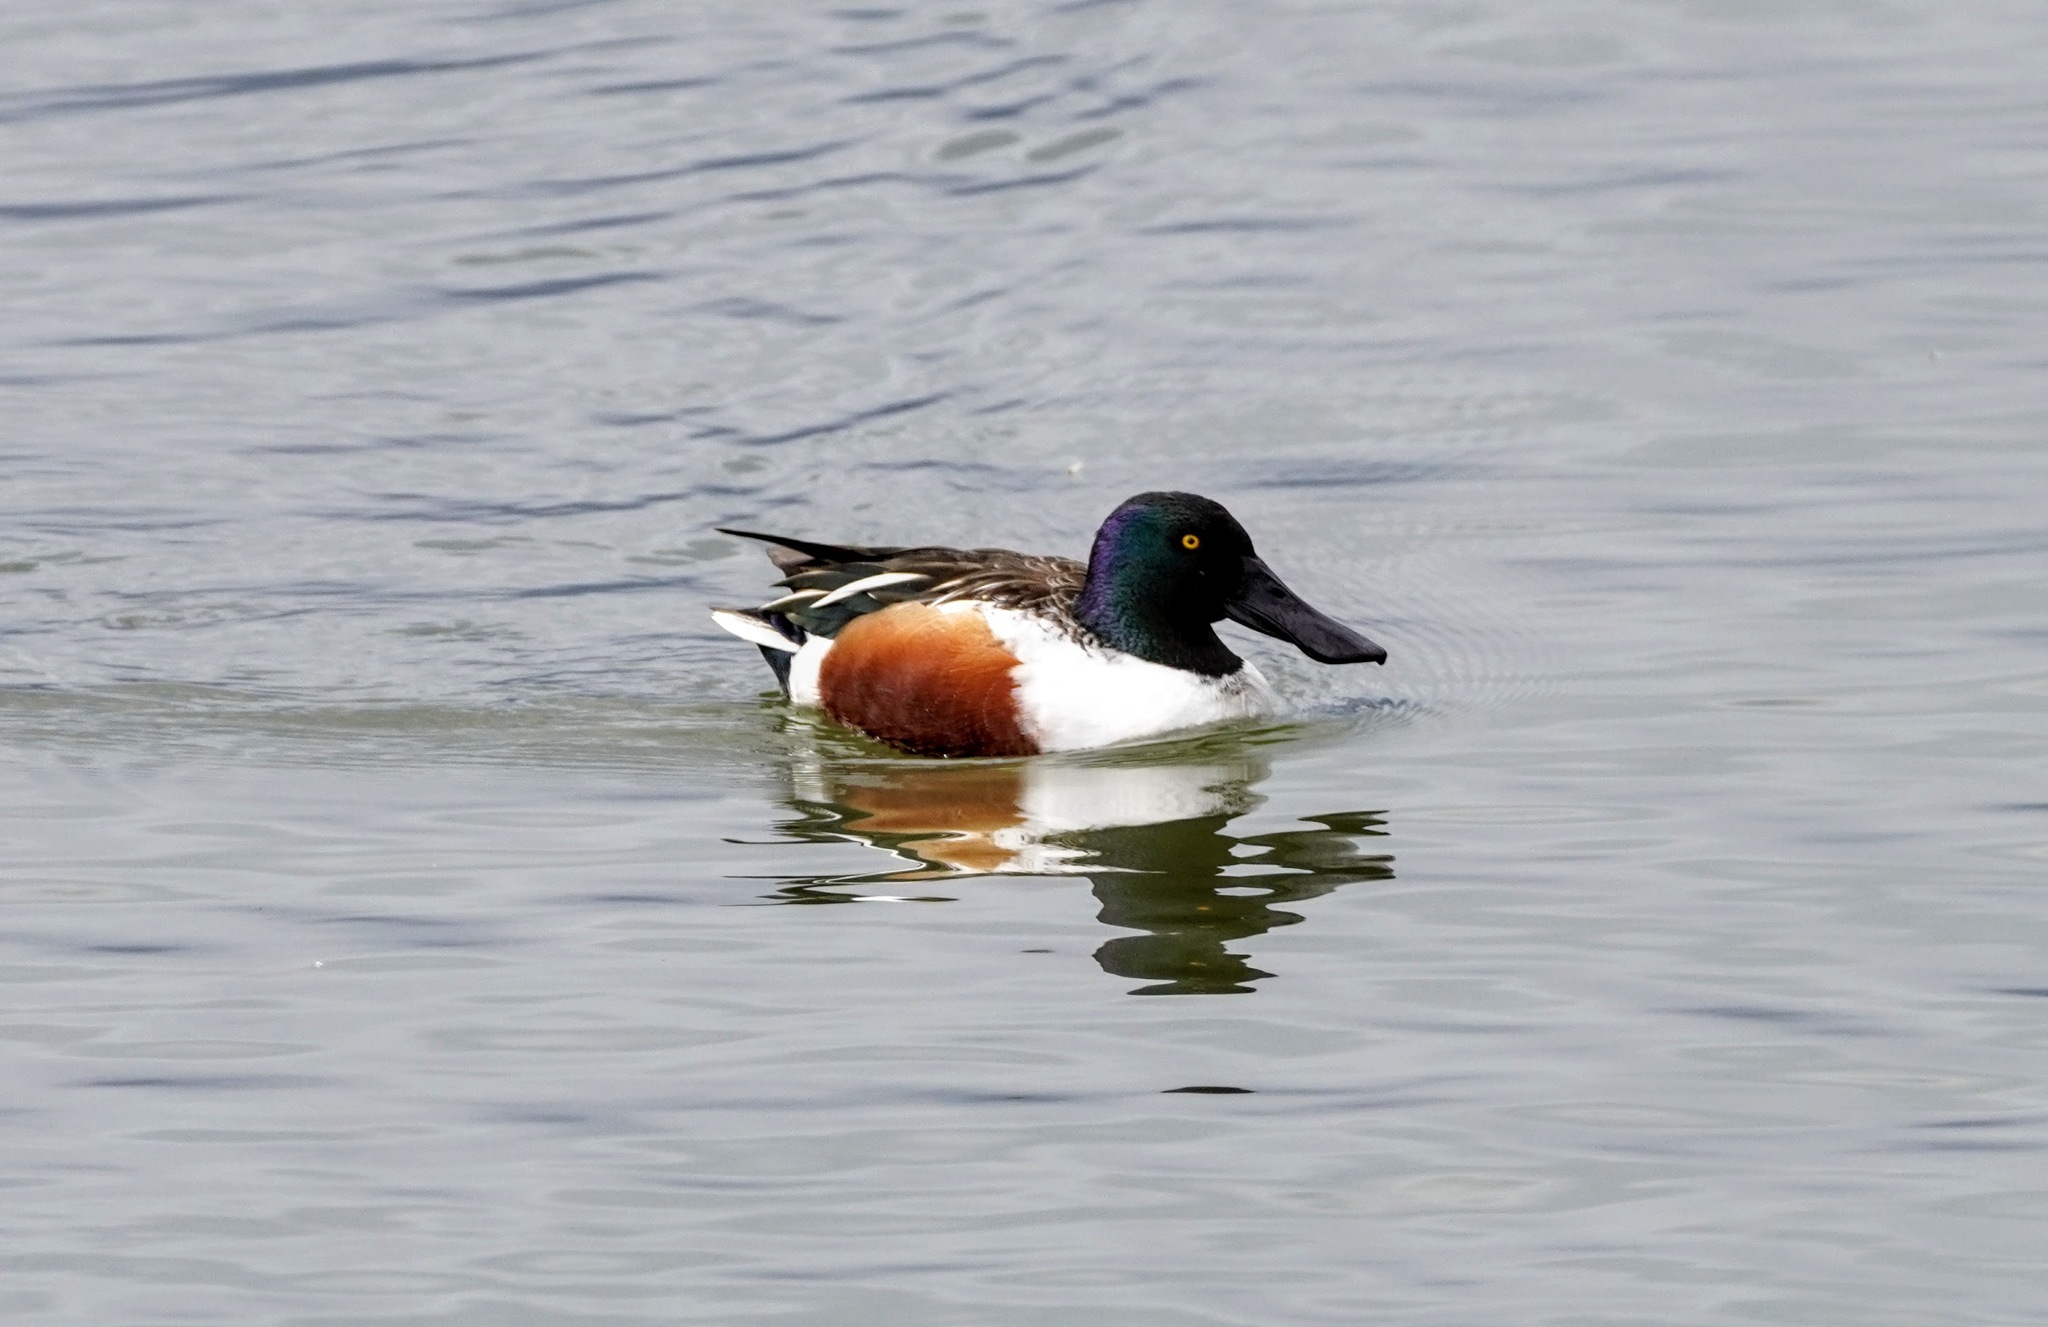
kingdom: Animalia
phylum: Chordata
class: Aves
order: Anseriformes
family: Anatidae
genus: Spatula
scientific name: Spatula clypeata
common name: Northern shoveler
